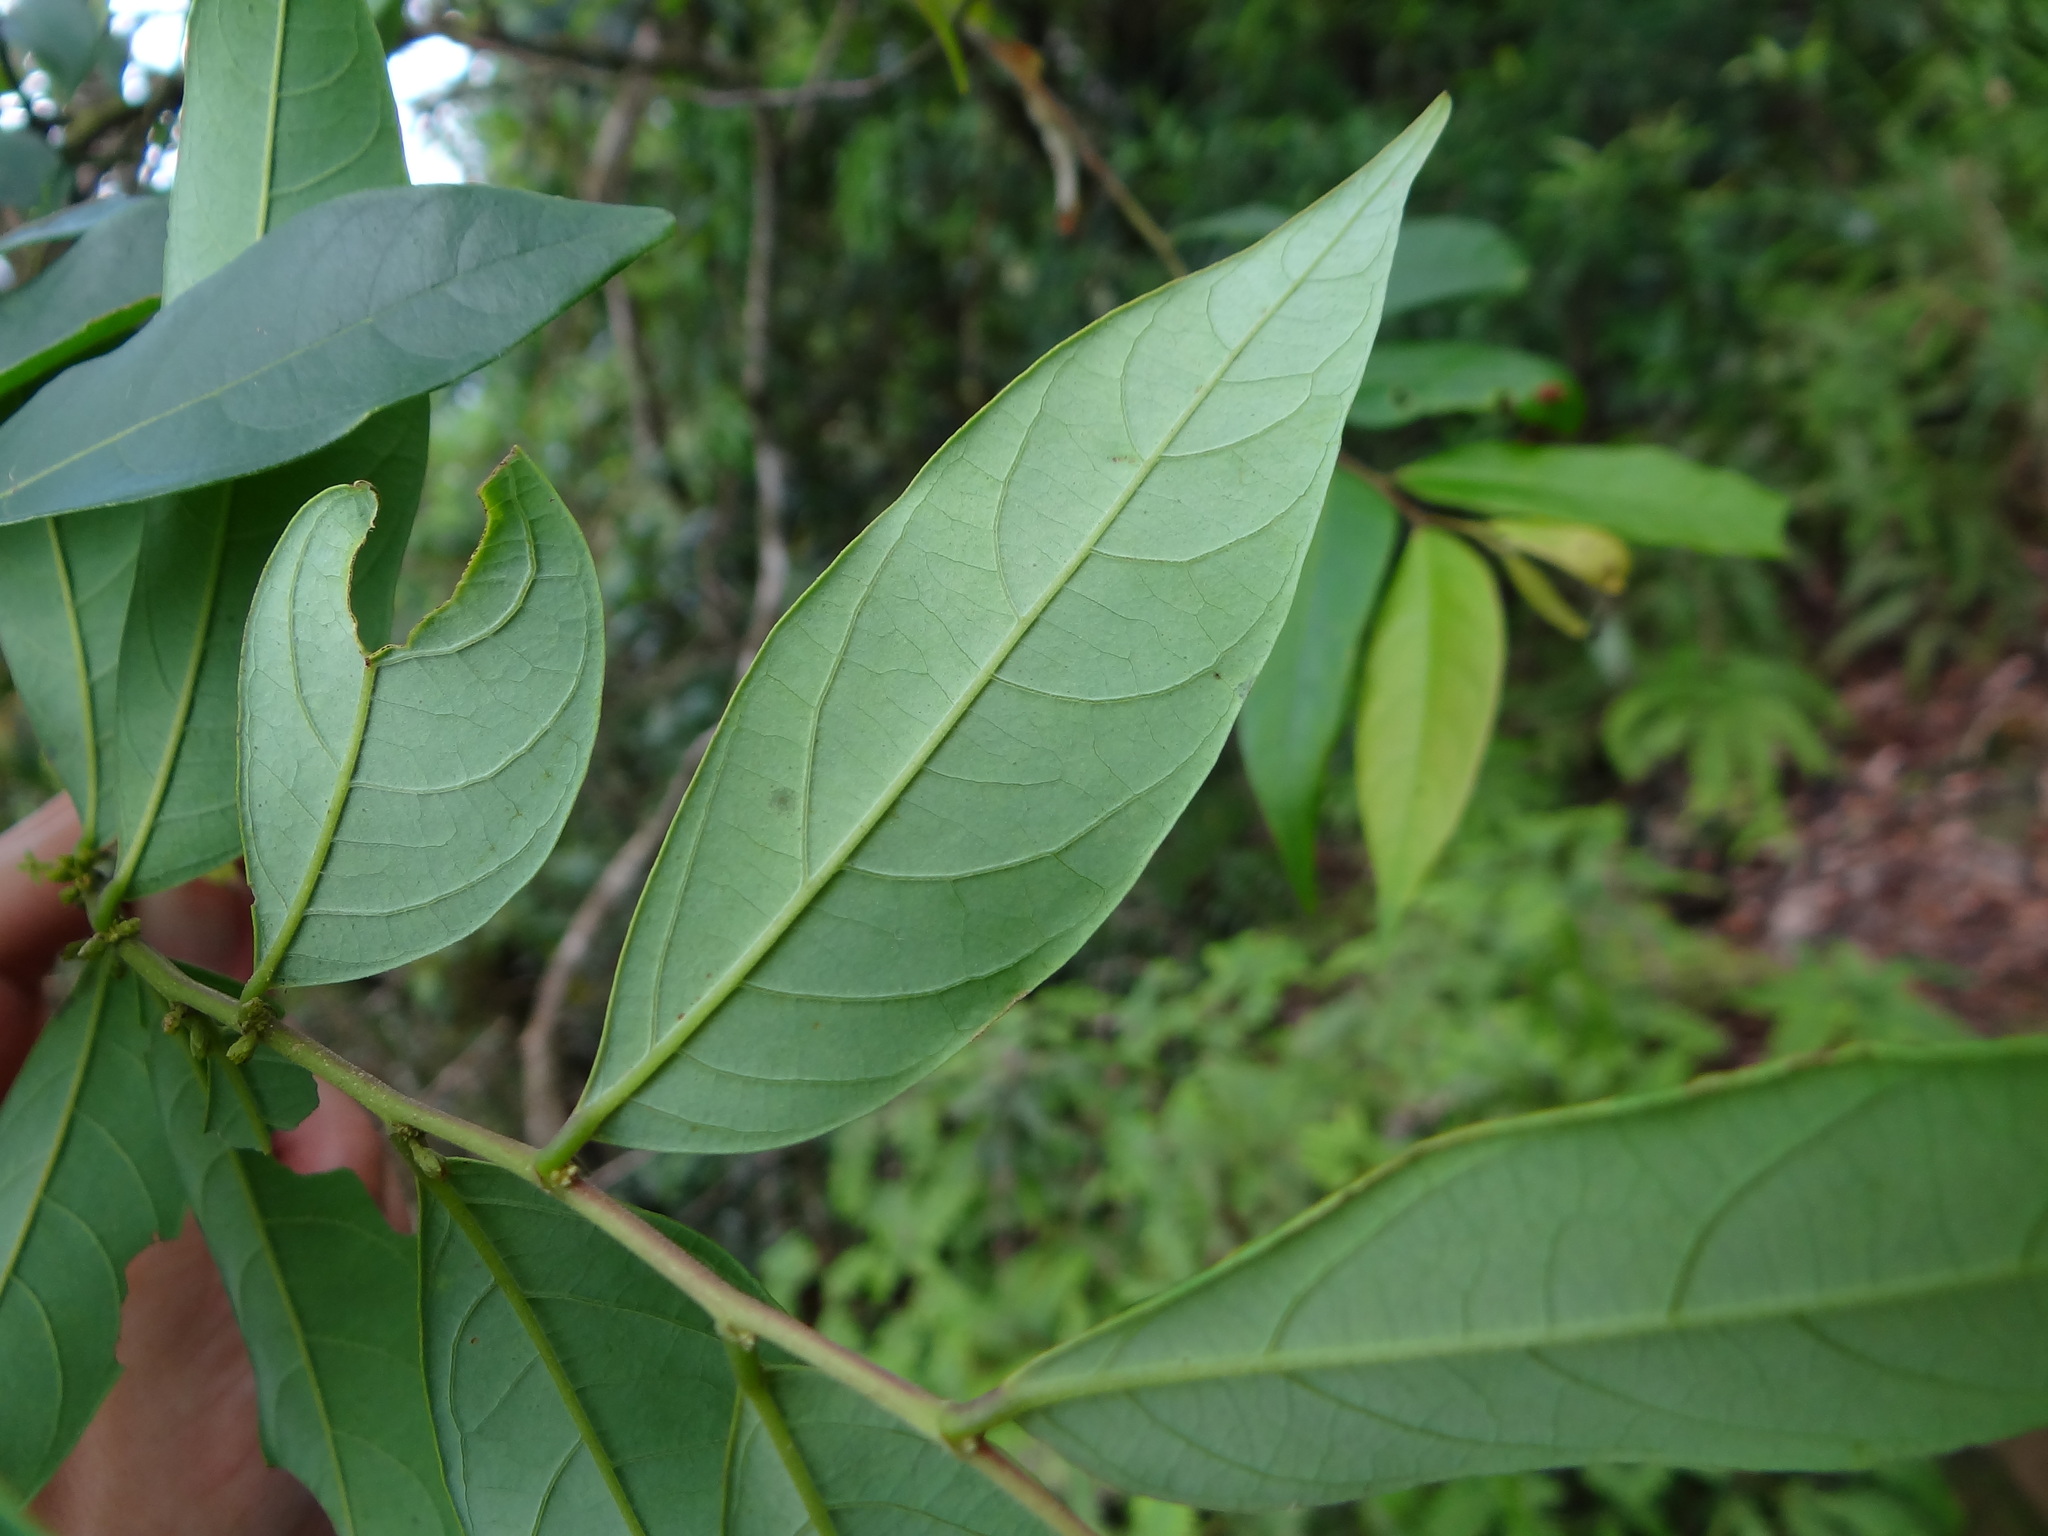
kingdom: Plantae
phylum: Tracheophyta
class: Magnoliopsida
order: Malpighiales
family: Phyllanthaceae
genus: Glochidion
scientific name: Glochidion acuminatum
